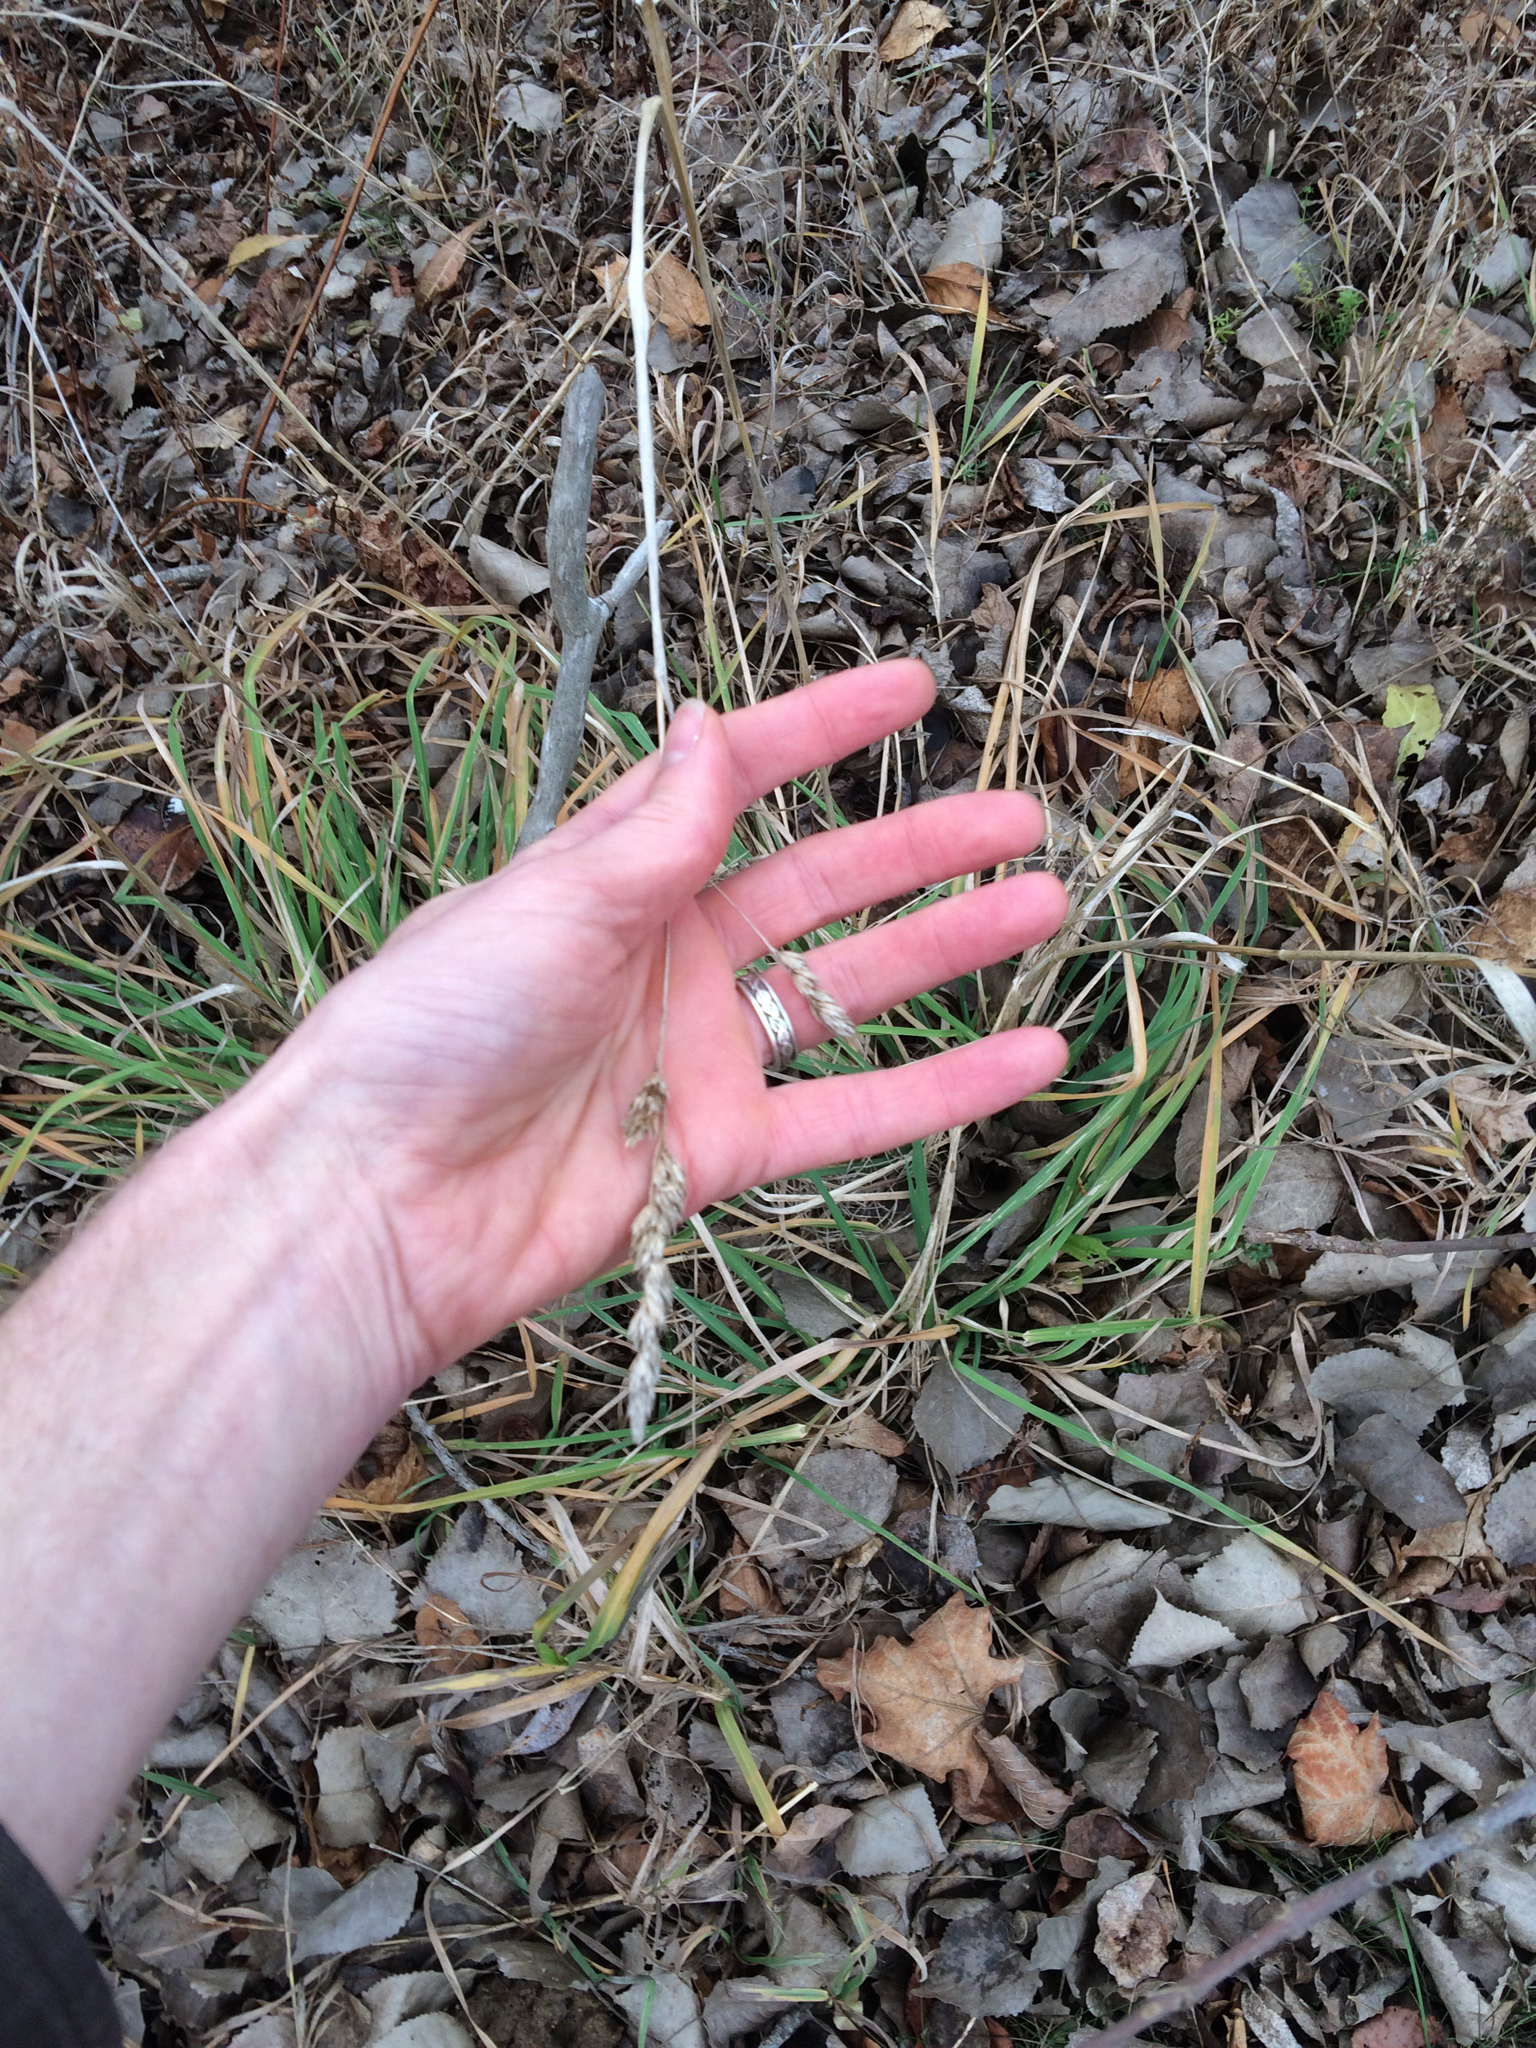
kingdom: Plantae
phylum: Tracheophyta
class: Liliopsida
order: Poales
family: Poaceae
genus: Dactylis
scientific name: Dactylis glomerata
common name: Orchardgrass
